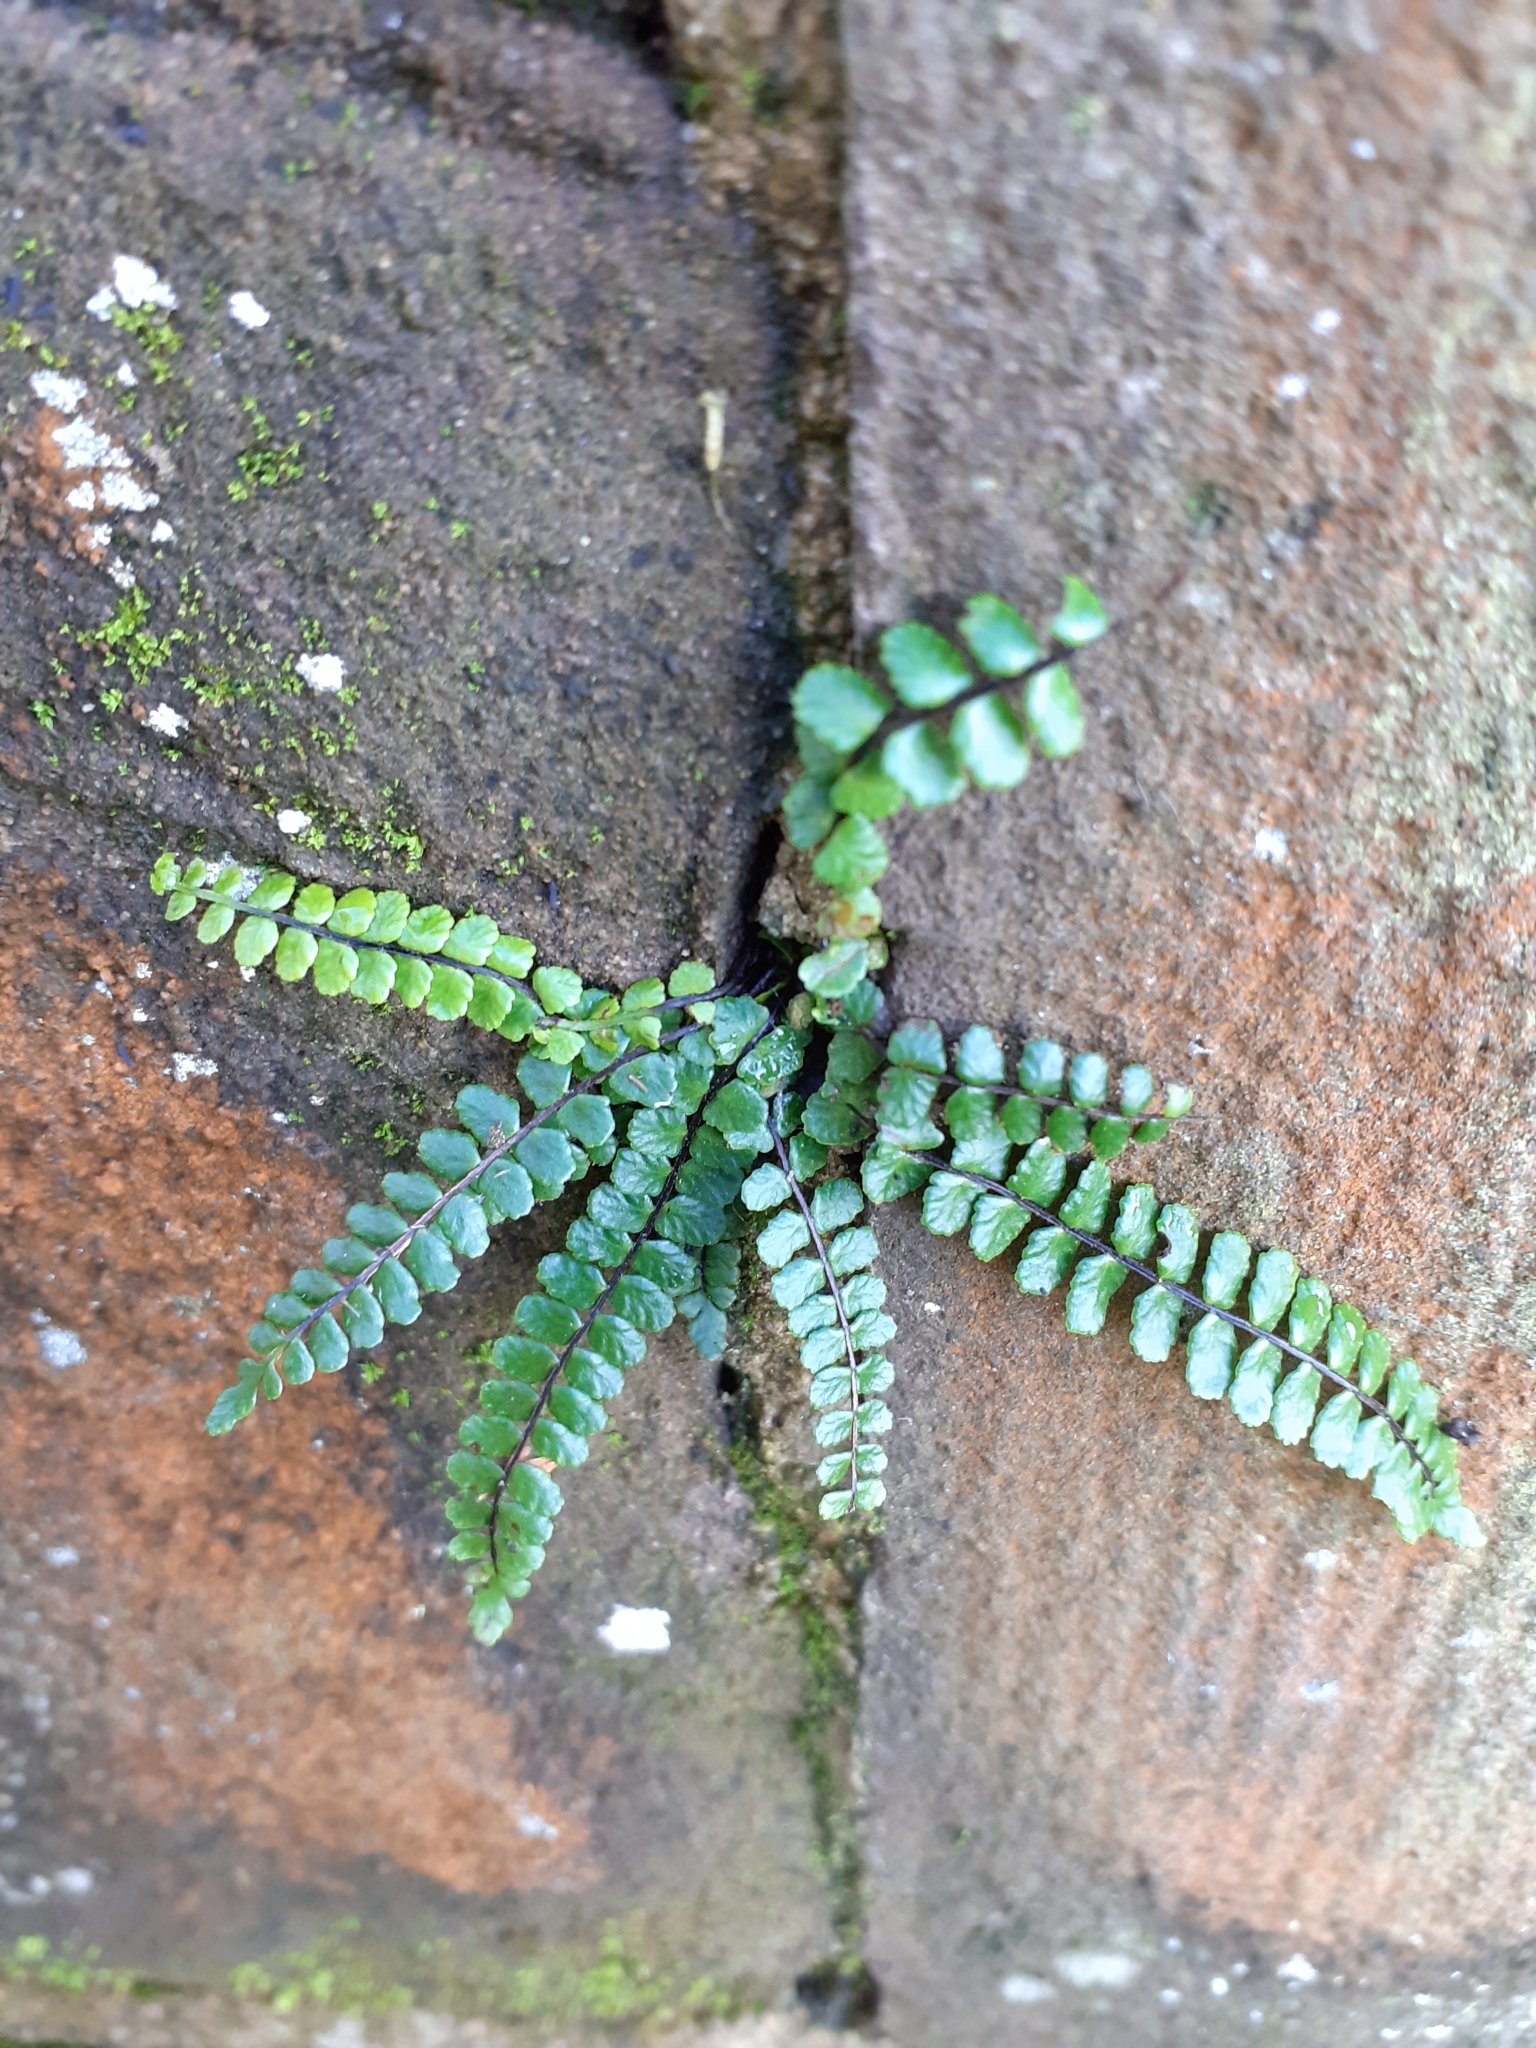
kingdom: Plantae
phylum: Tracheophyta
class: Polypodiopsida
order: Polypodiales
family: Aspleniaceae
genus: Asplenium
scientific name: Asplenium trichomanes
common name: Maidenhair spleenwort
